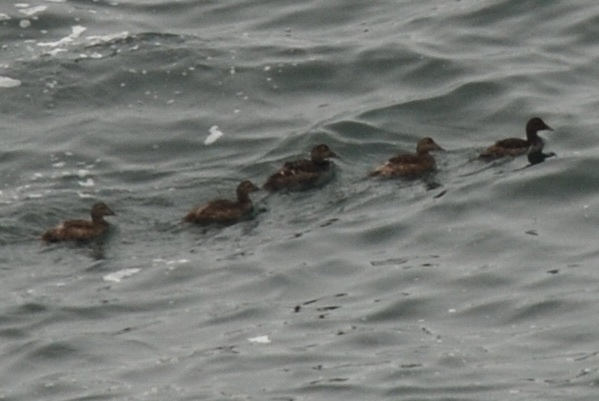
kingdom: Animalia
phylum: Chordata
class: Aves
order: Anseriformes
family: Anatidae
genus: Somateria
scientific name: Somateria mollissima
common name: Common eider
